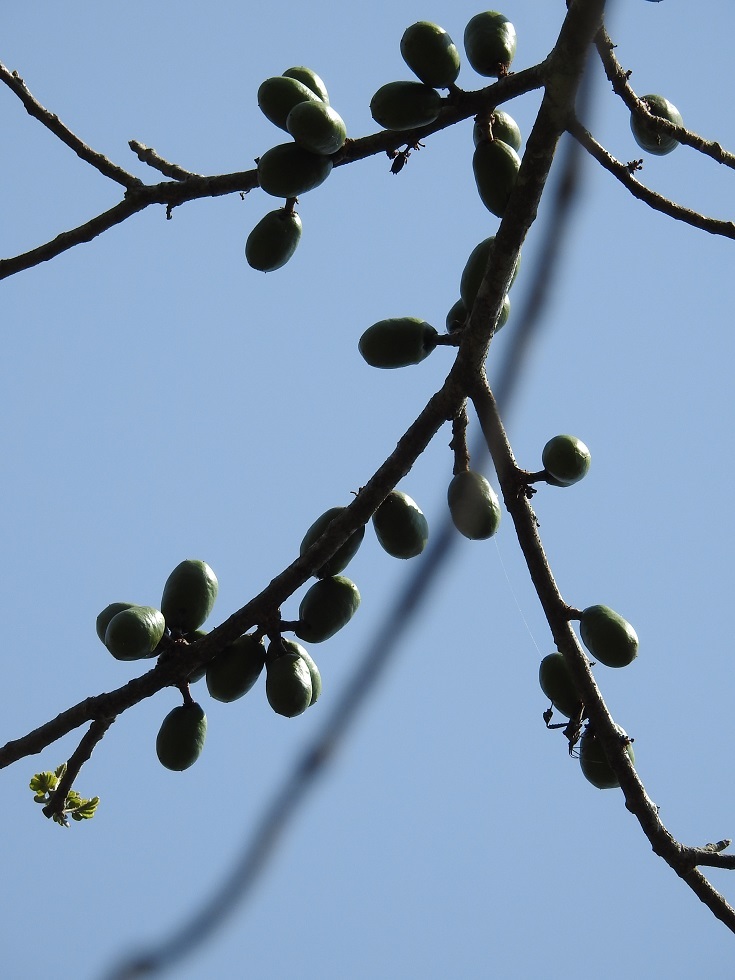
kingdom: Plantae
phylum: Tracheophyta
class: Magnoliopsida
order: Sapindales
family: Anacardiaceae
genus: Spondias
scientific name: Spondias purpurea
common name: Purple mombin
